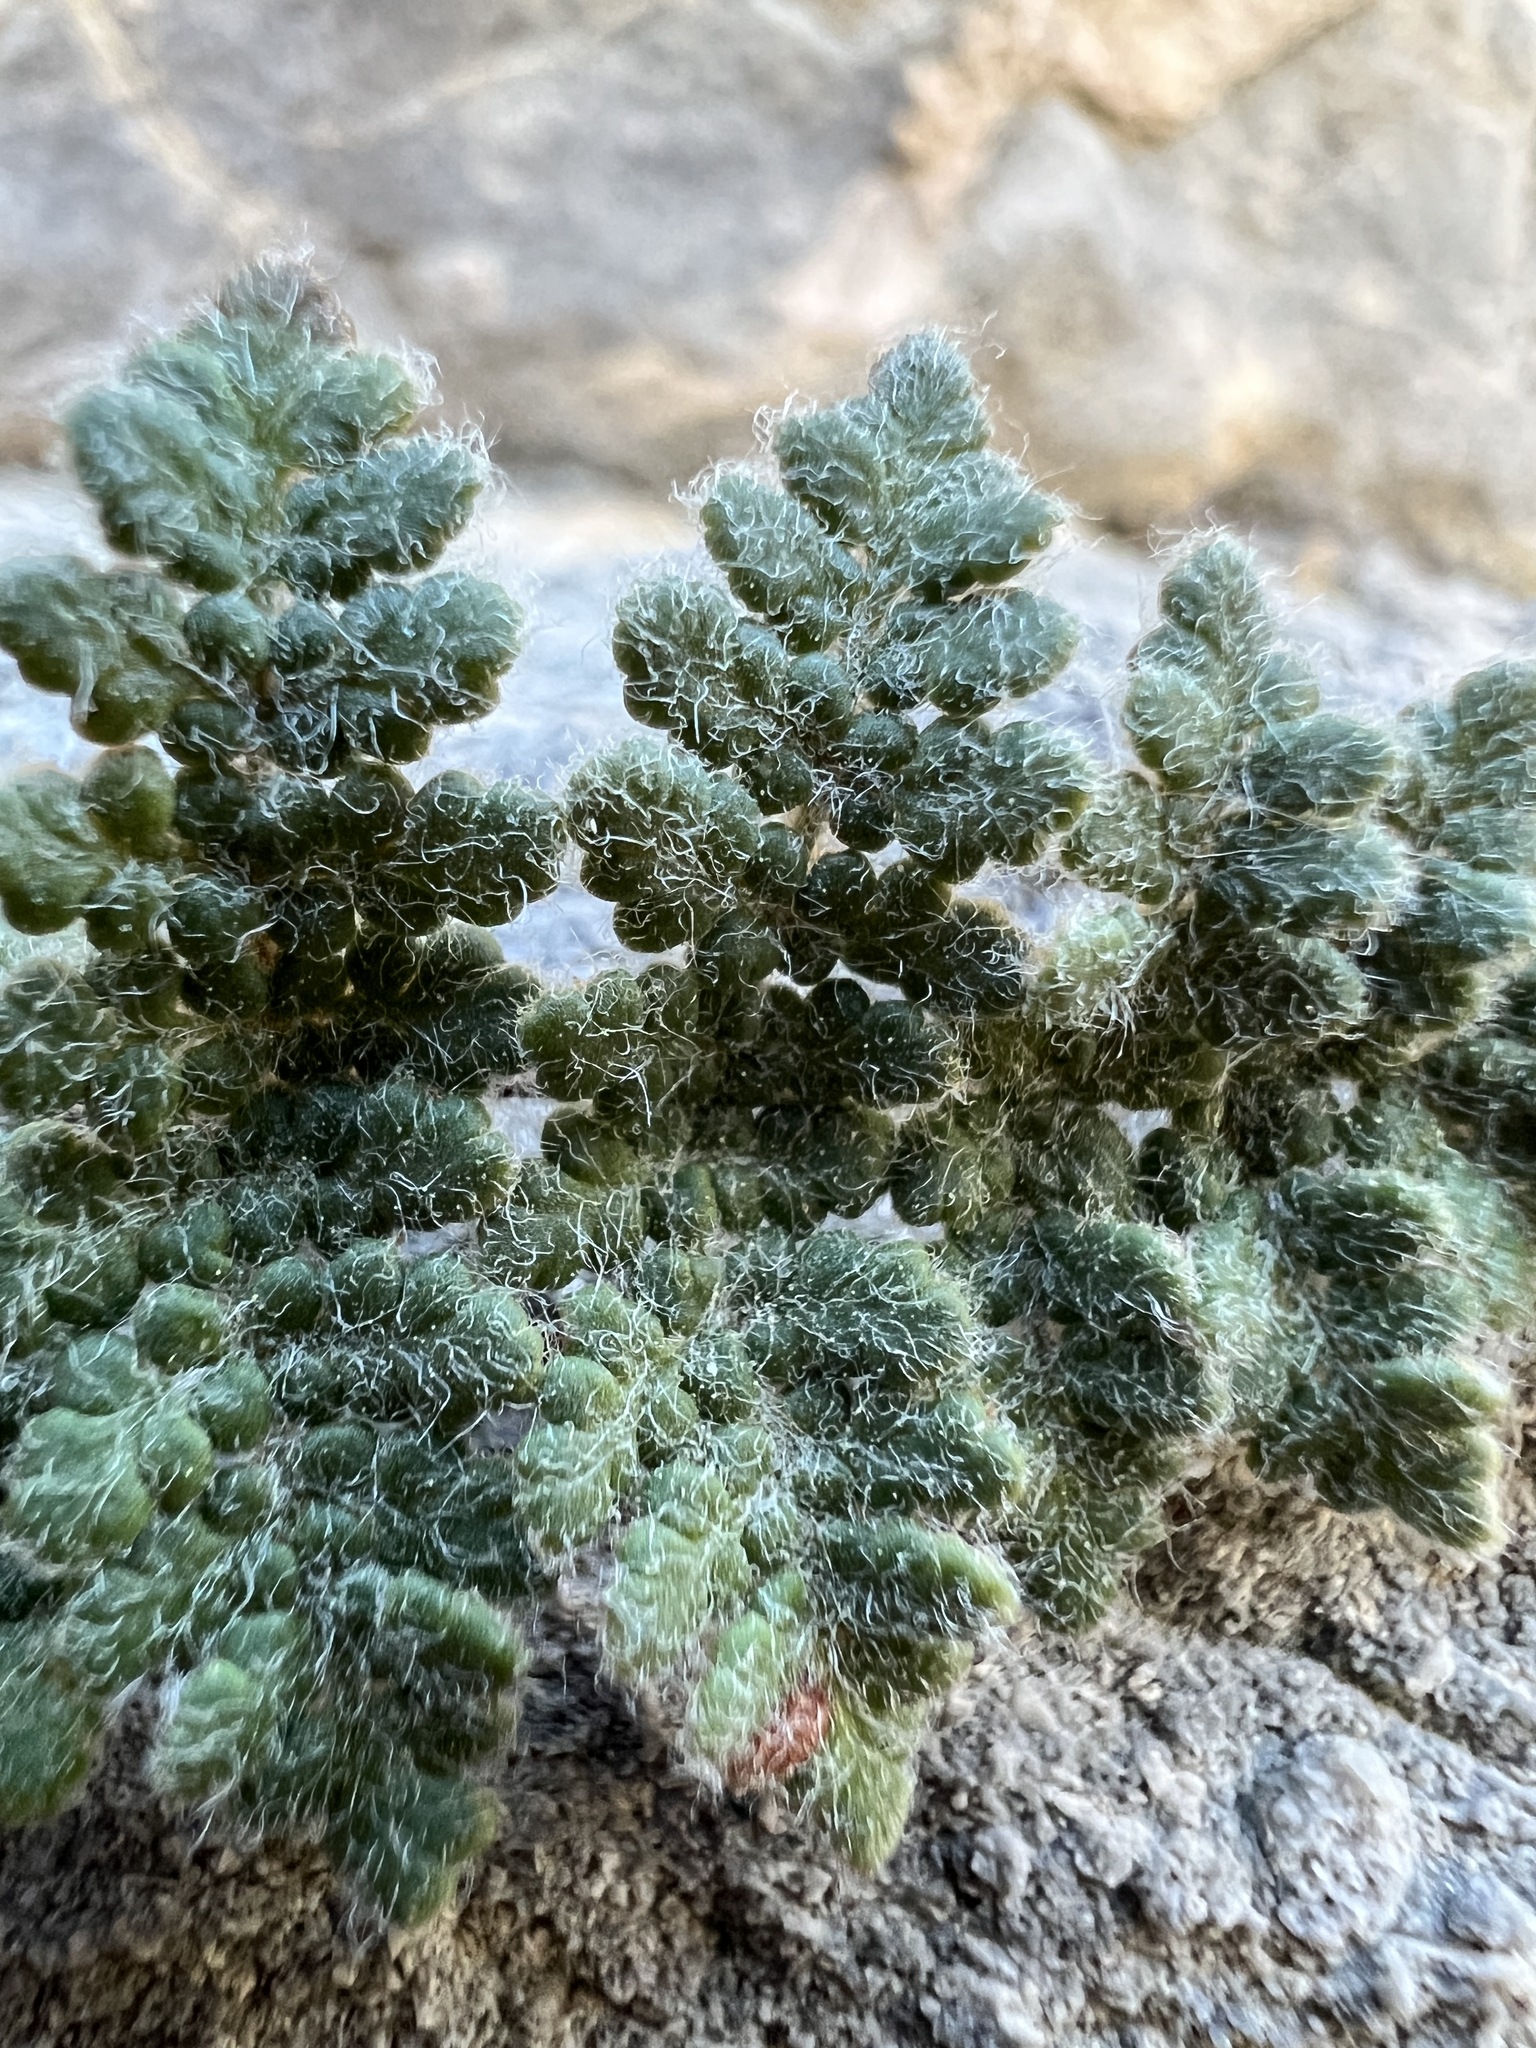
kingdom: Plantae
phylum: Tracheophyta
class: Polypodiopsida
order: Polypodiales
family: Pteridaceae
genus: Myriopteris
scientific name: Myriopteris gracilis
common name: Fee's lip fern
